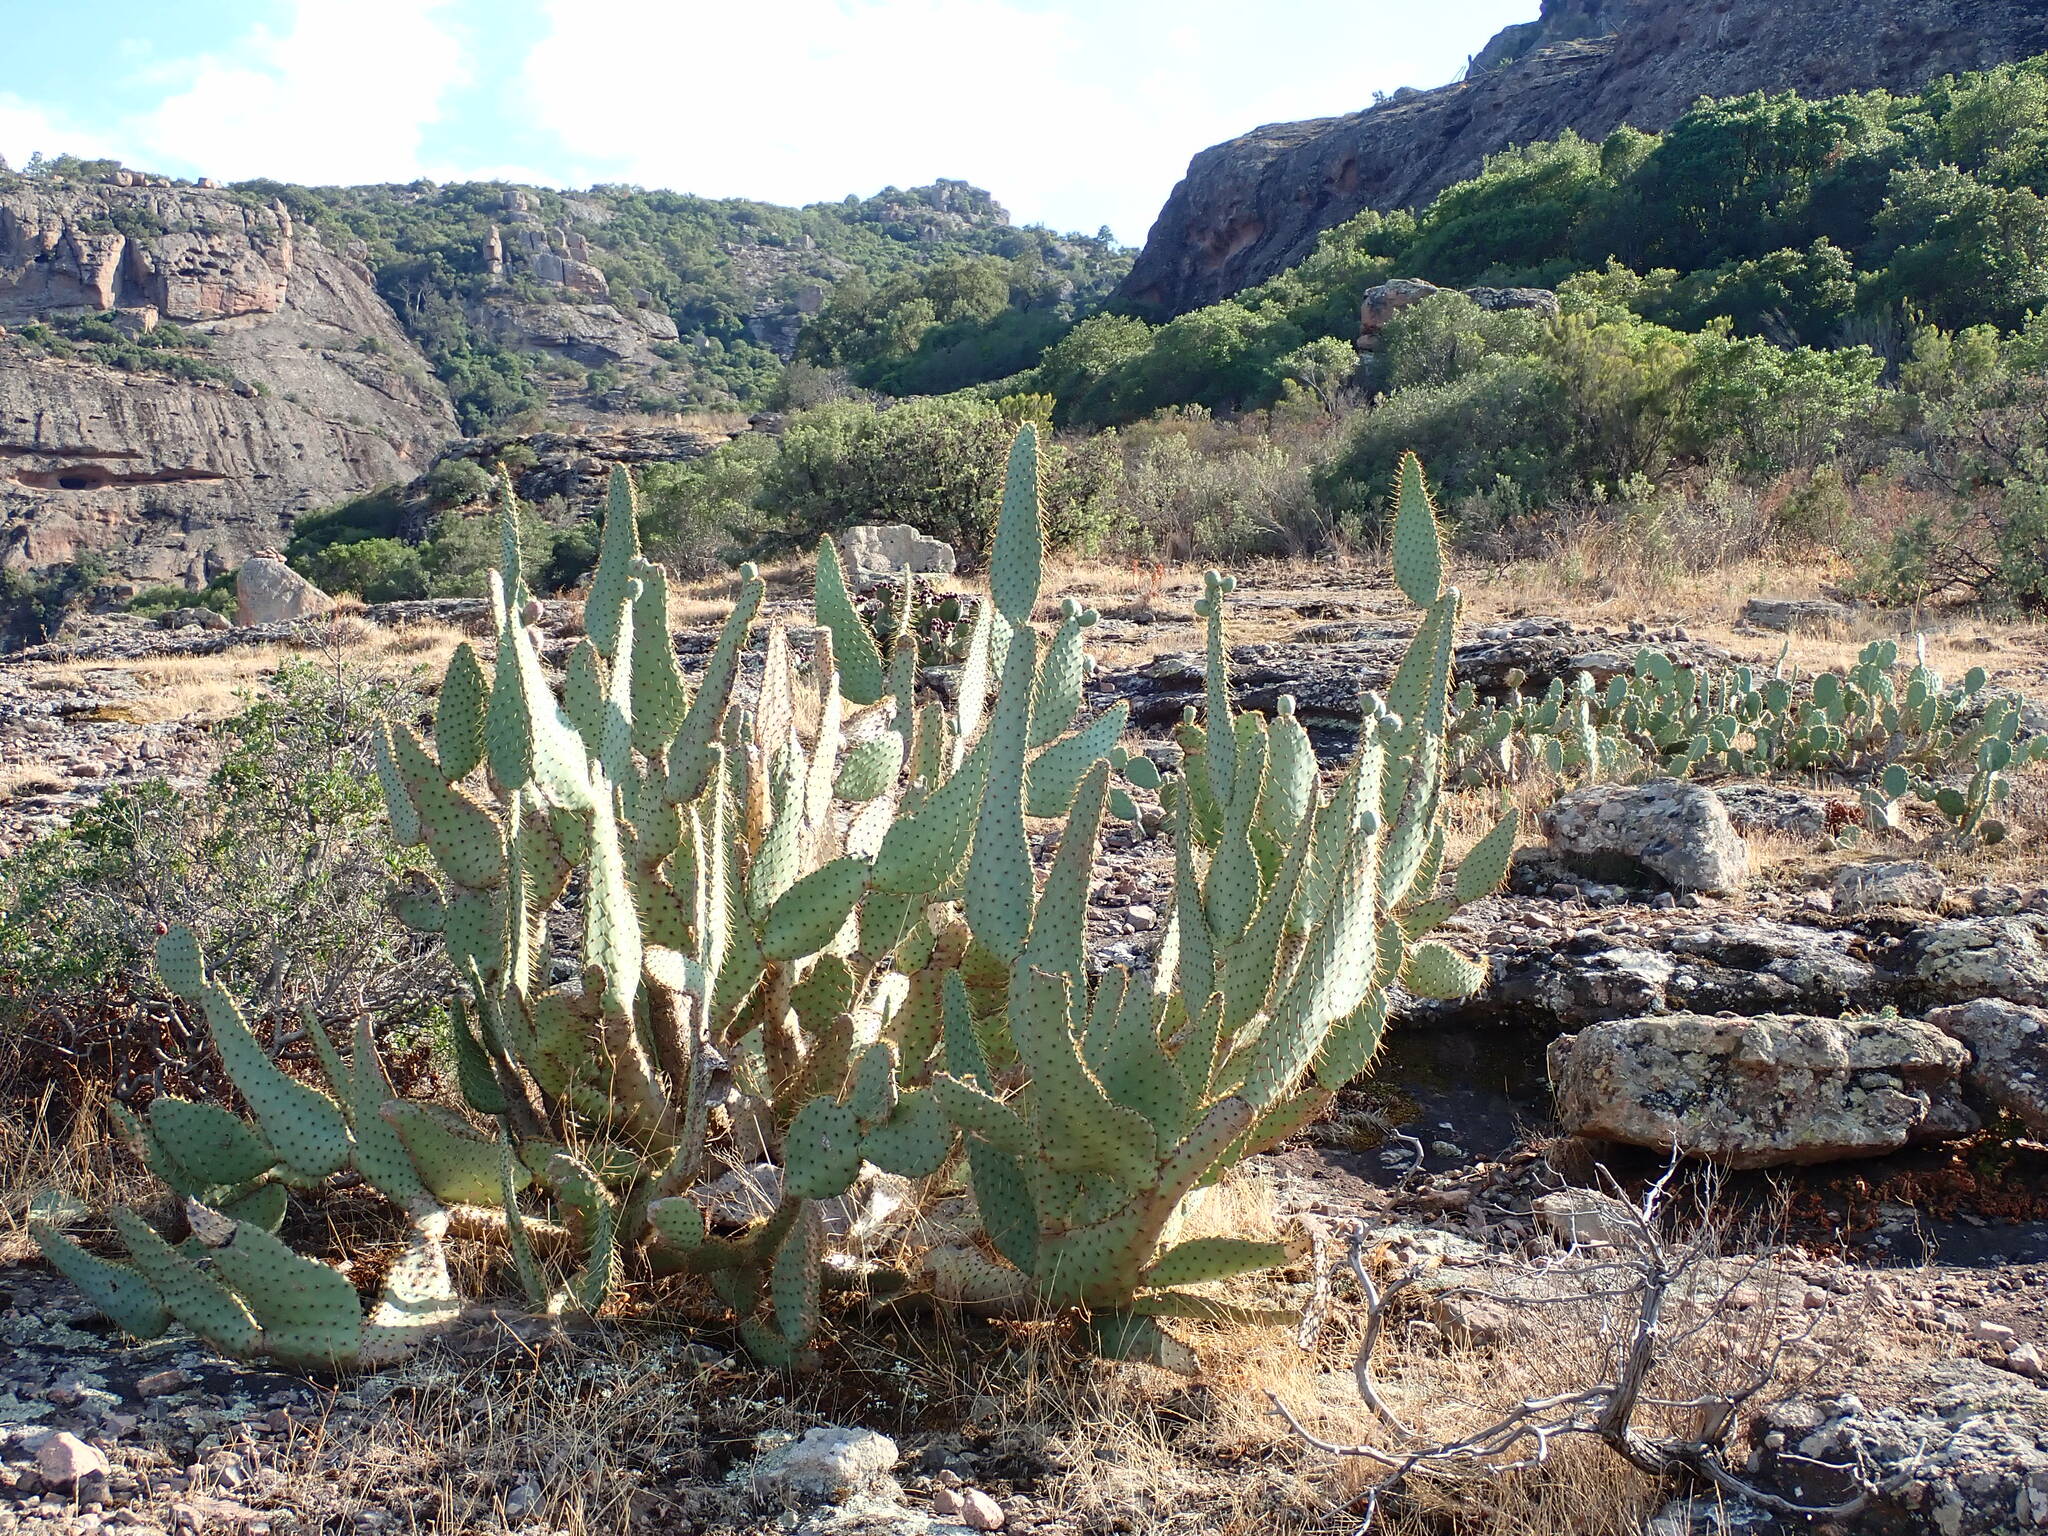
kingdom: Plantae
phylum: Tracheophyta
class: Magnoliopsida
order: Caryophyllales
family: Cactaceae
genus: Opuntia
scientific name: Opuntia engelmannii
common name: Cactus-apple
